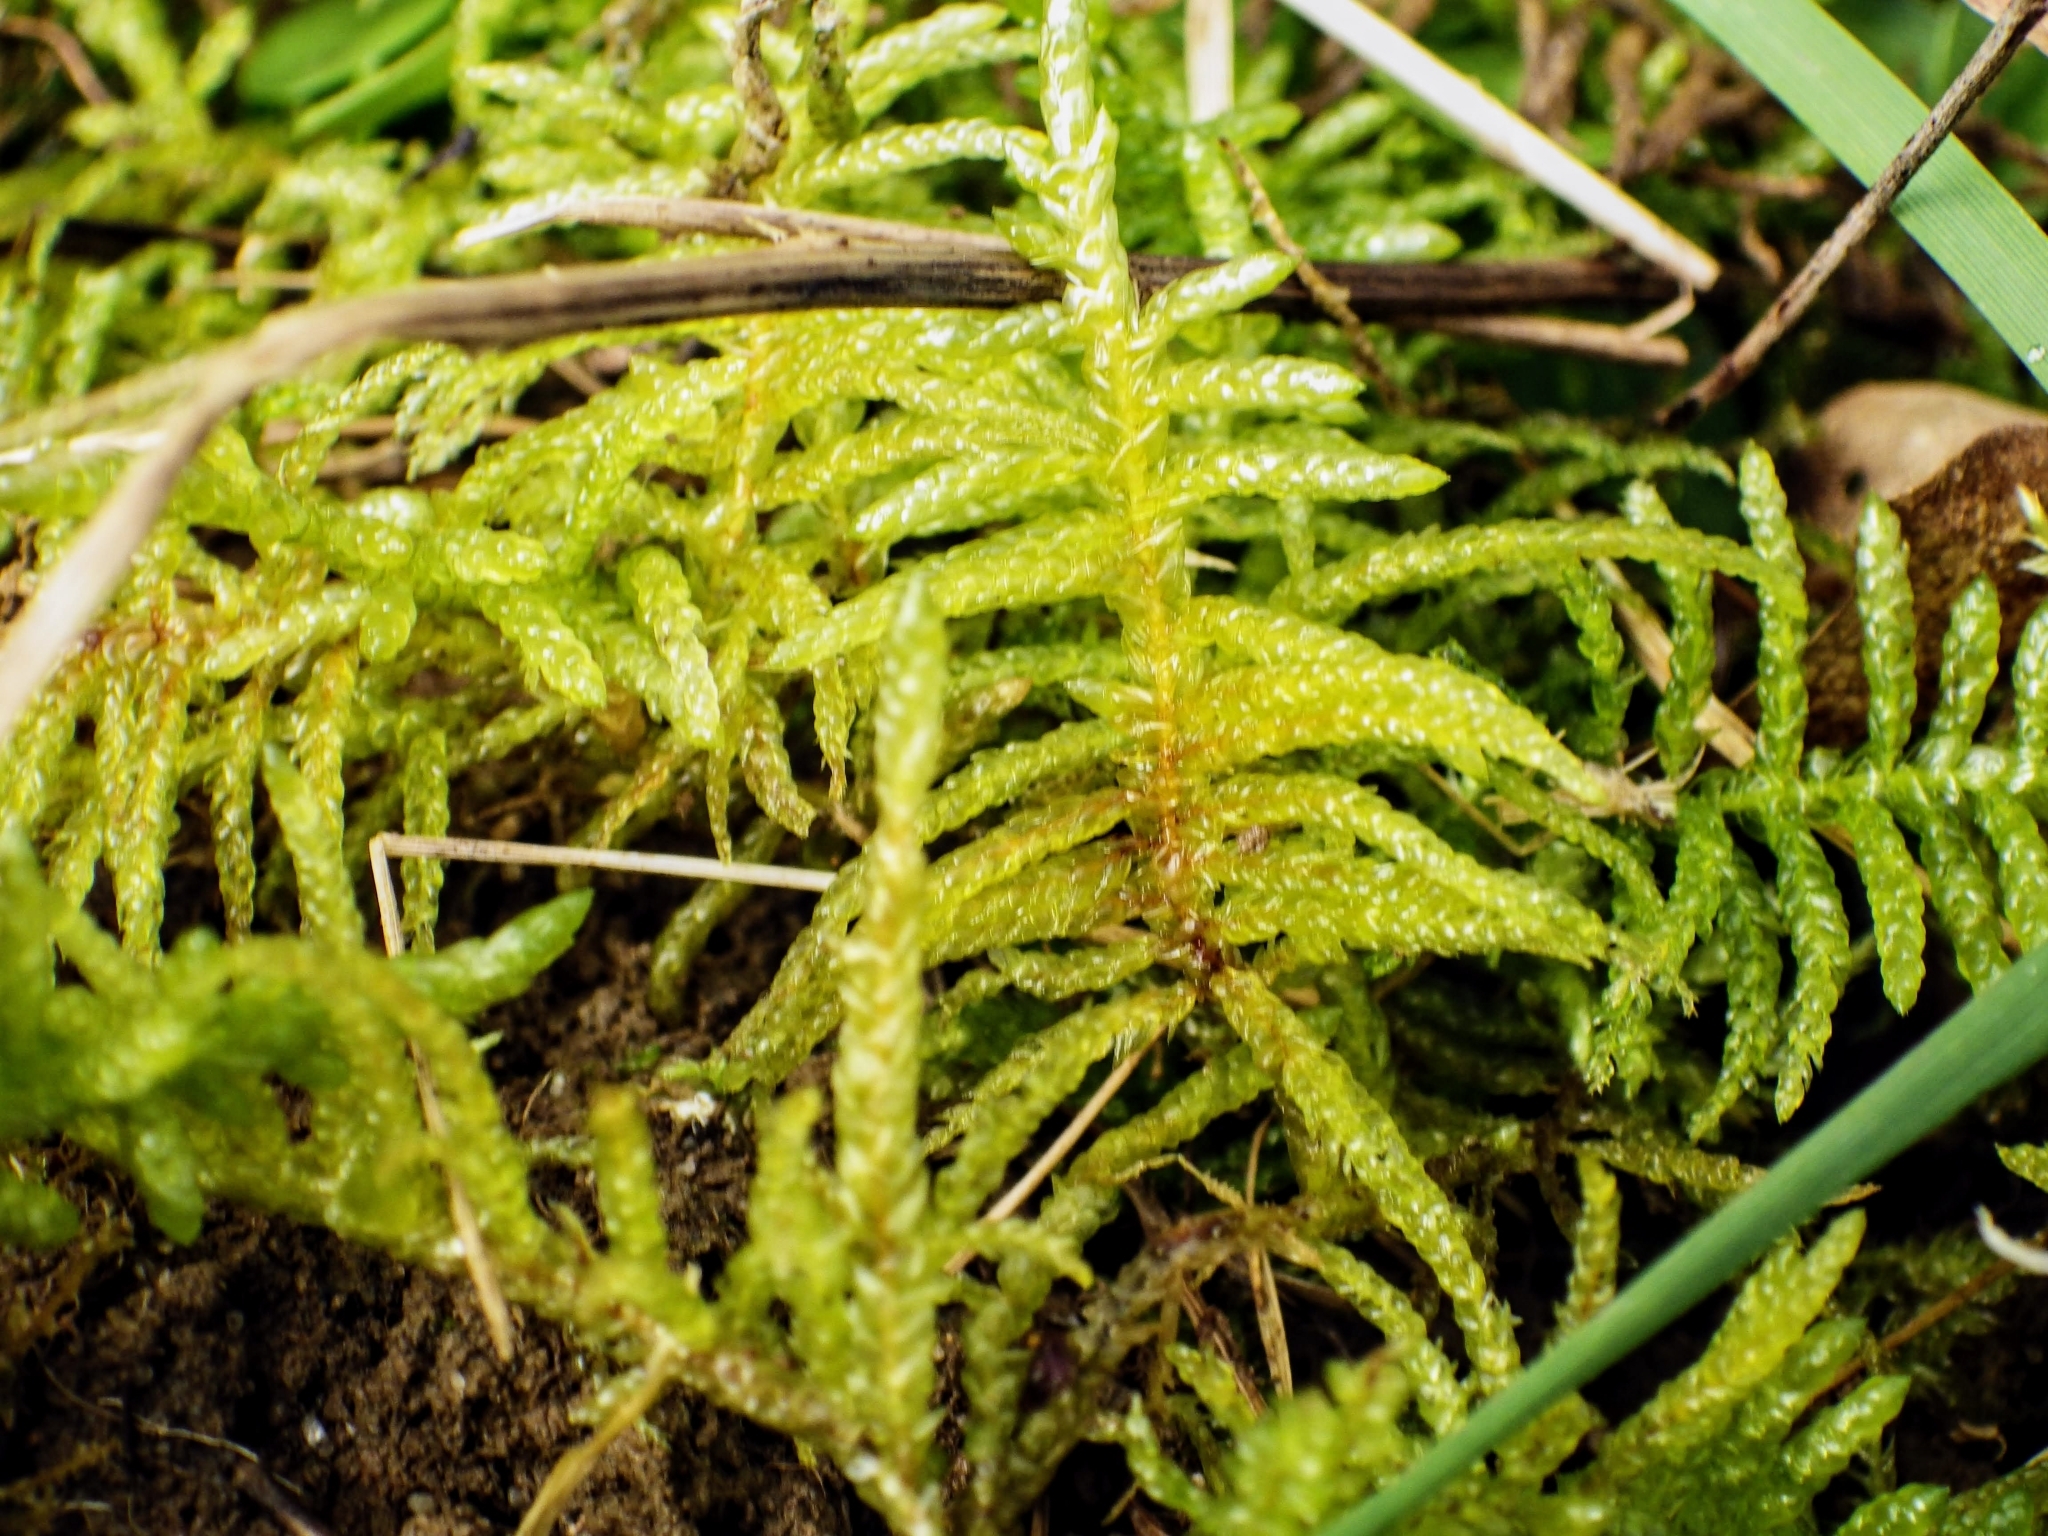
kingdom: Plantae
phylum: Bryophyta
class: Bryopsida
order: Hypnales
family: Brachytheciaceae
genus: Pseudoscleropodium
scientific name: Pseudoscleropodium purum
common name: Neat feather-moss
